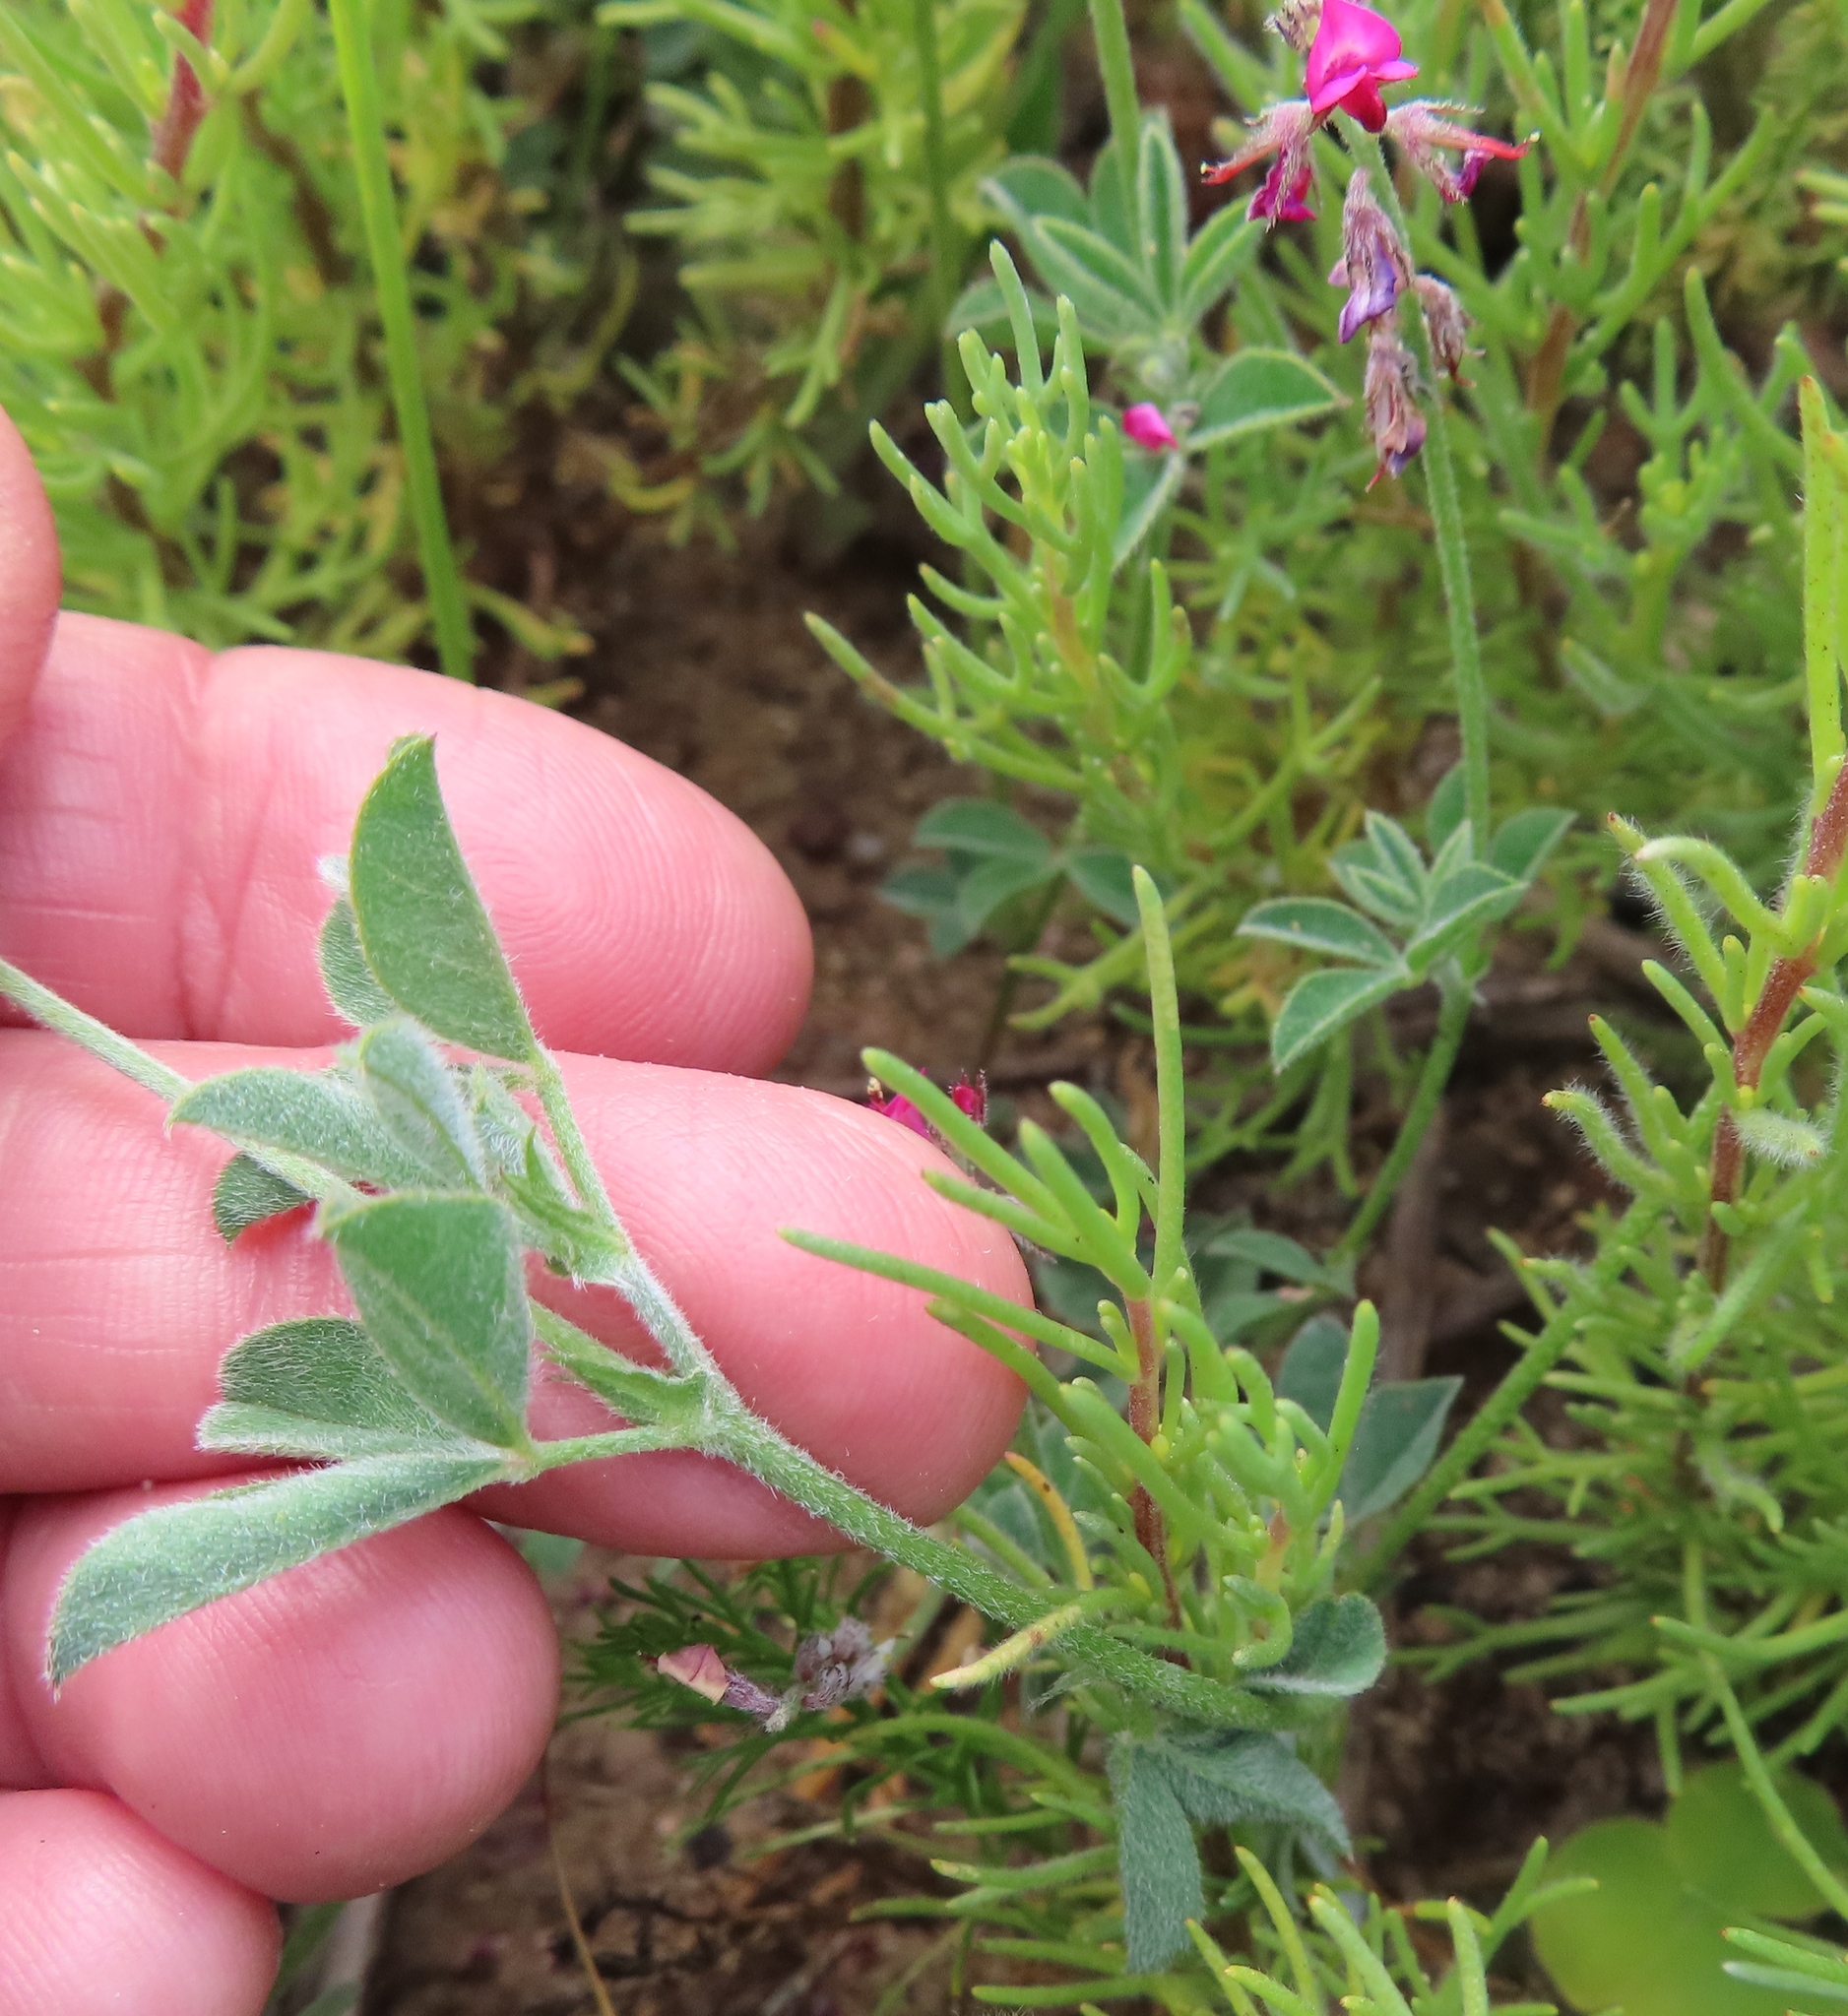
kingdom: Plantae
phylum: Tracheophyta
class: Magnoliopsida
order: Fabales
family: Fabaceae
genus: Indigofera
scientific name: Indigofera incana
